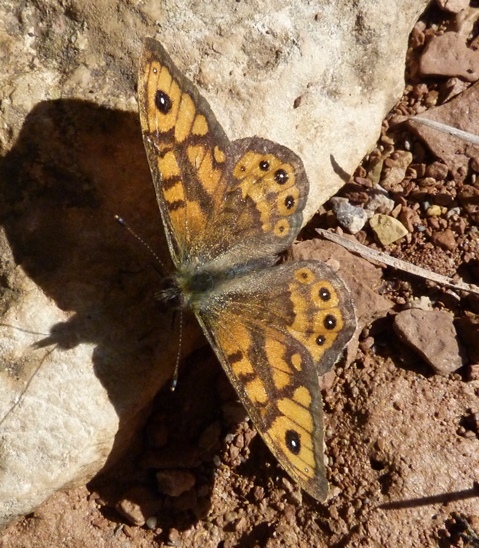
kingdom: Animalia
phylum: Arthropoda
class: Insecta
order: Lepidoptera
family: Nymphalidae
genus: Pararge
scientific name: Pararge Lasiommata megera
